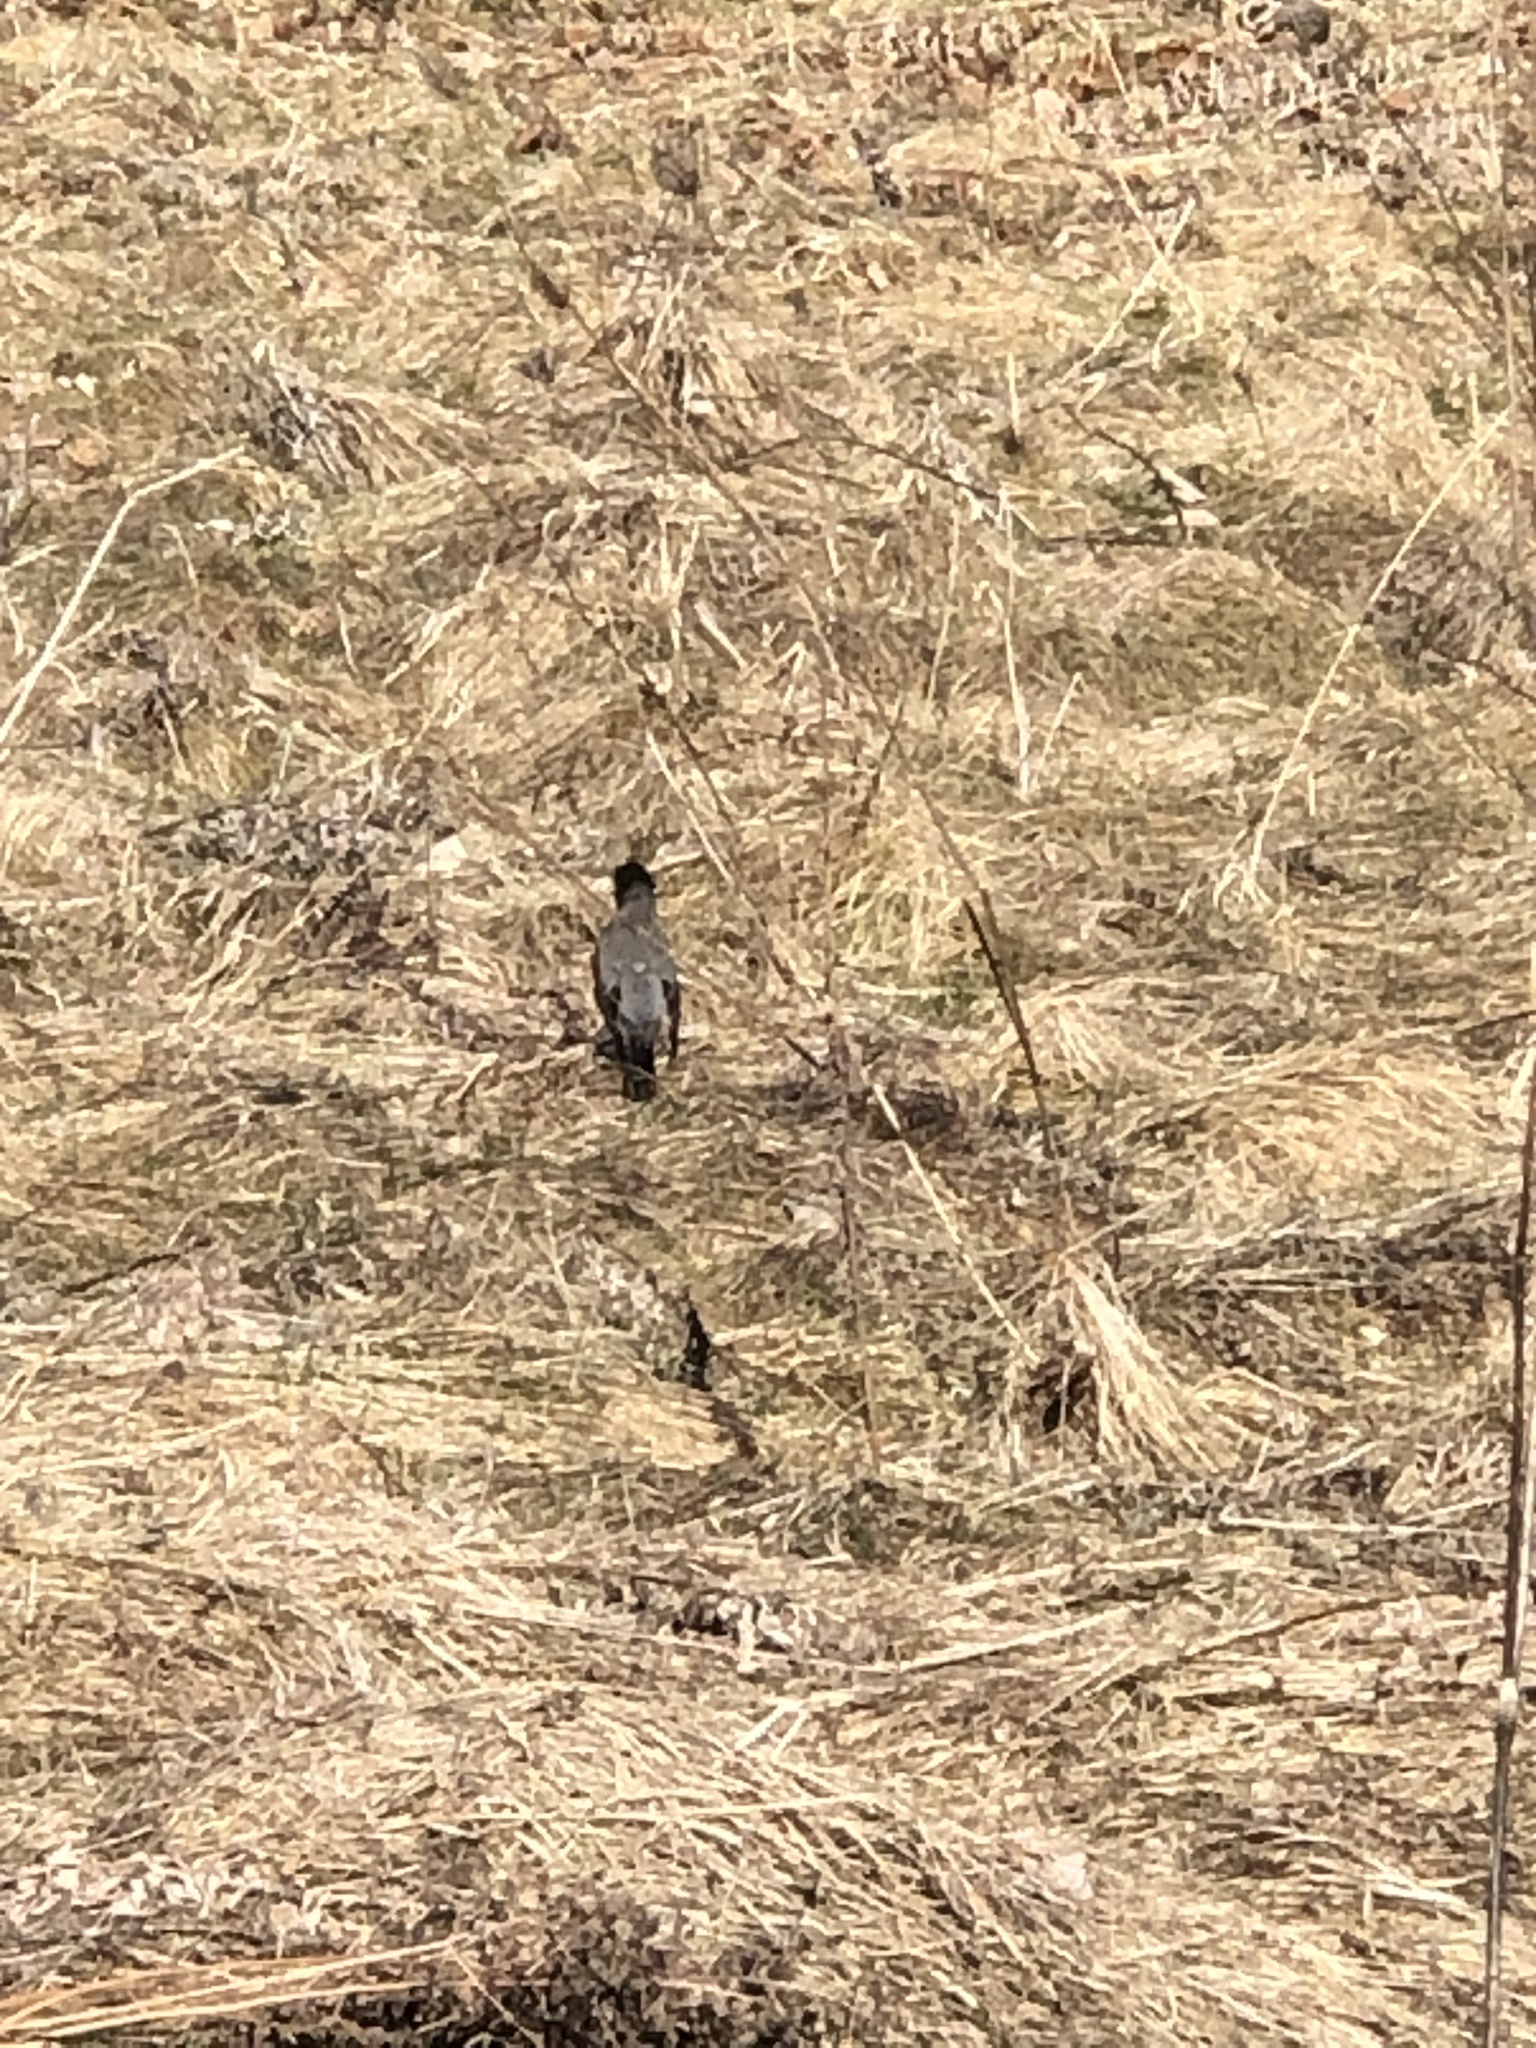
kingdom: Animalia
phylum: Chordata
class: Aves
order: Passeriformes
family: Turdidae
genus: Turdus
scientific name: Turdus migratorius
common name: American robin
